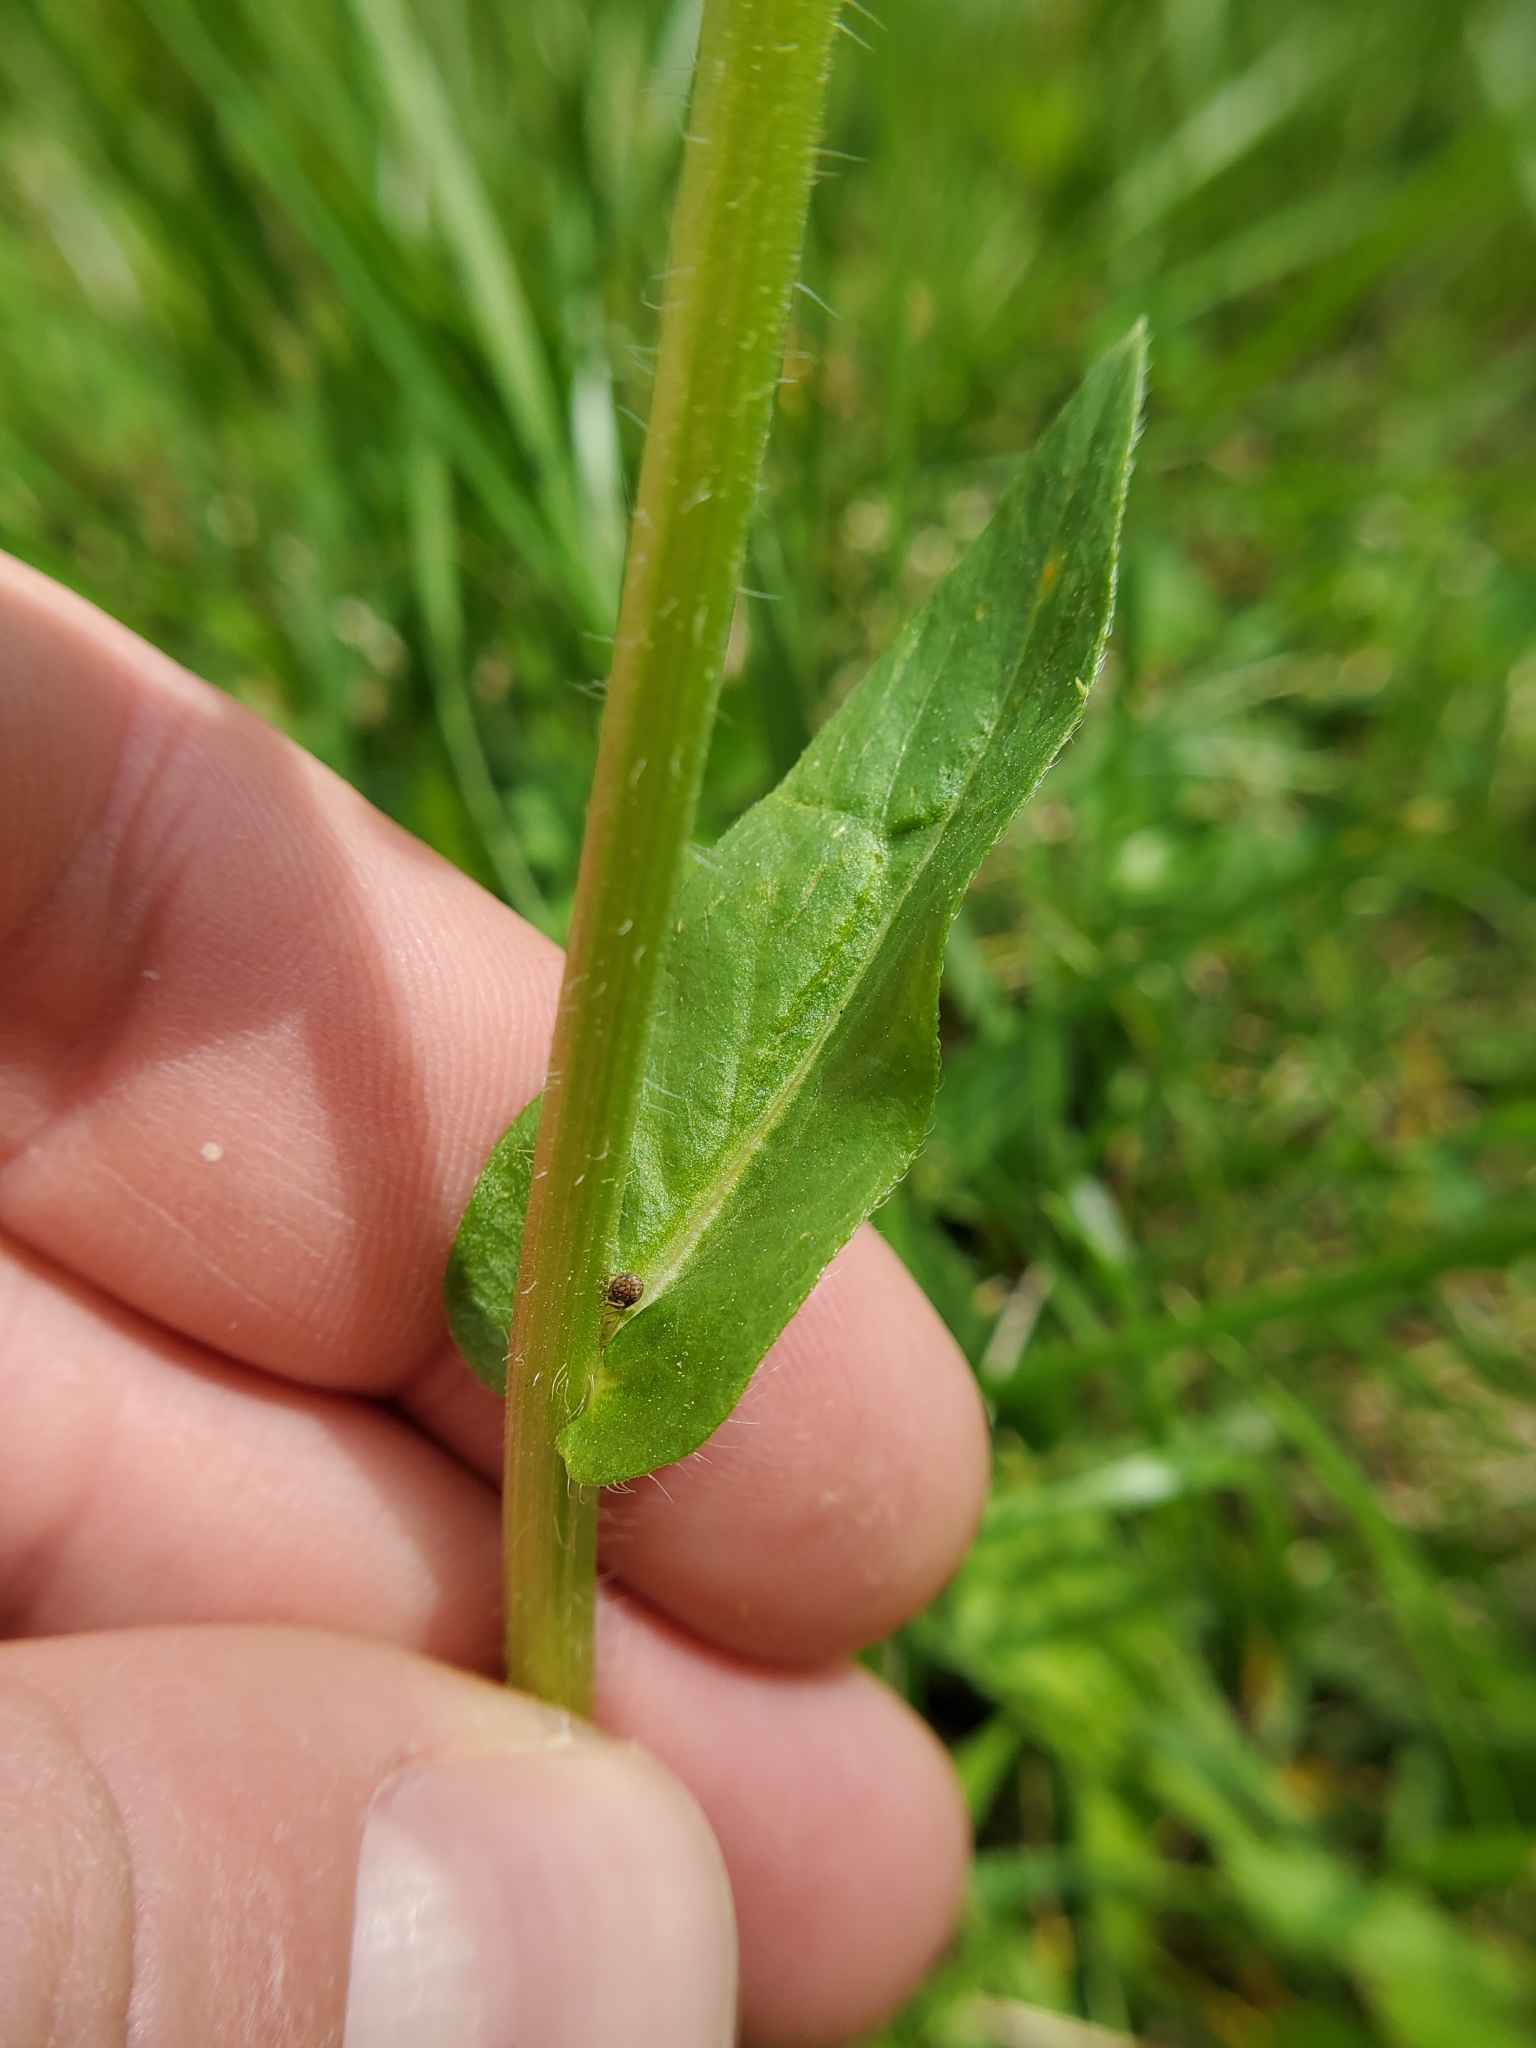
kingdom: Plantae
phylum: Tracheophyta
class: Magnoliopsida
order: Asterales
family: Asteraceae
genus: Erigeron
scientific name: Erigeron philadelphicus
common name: Robin's-plantain
